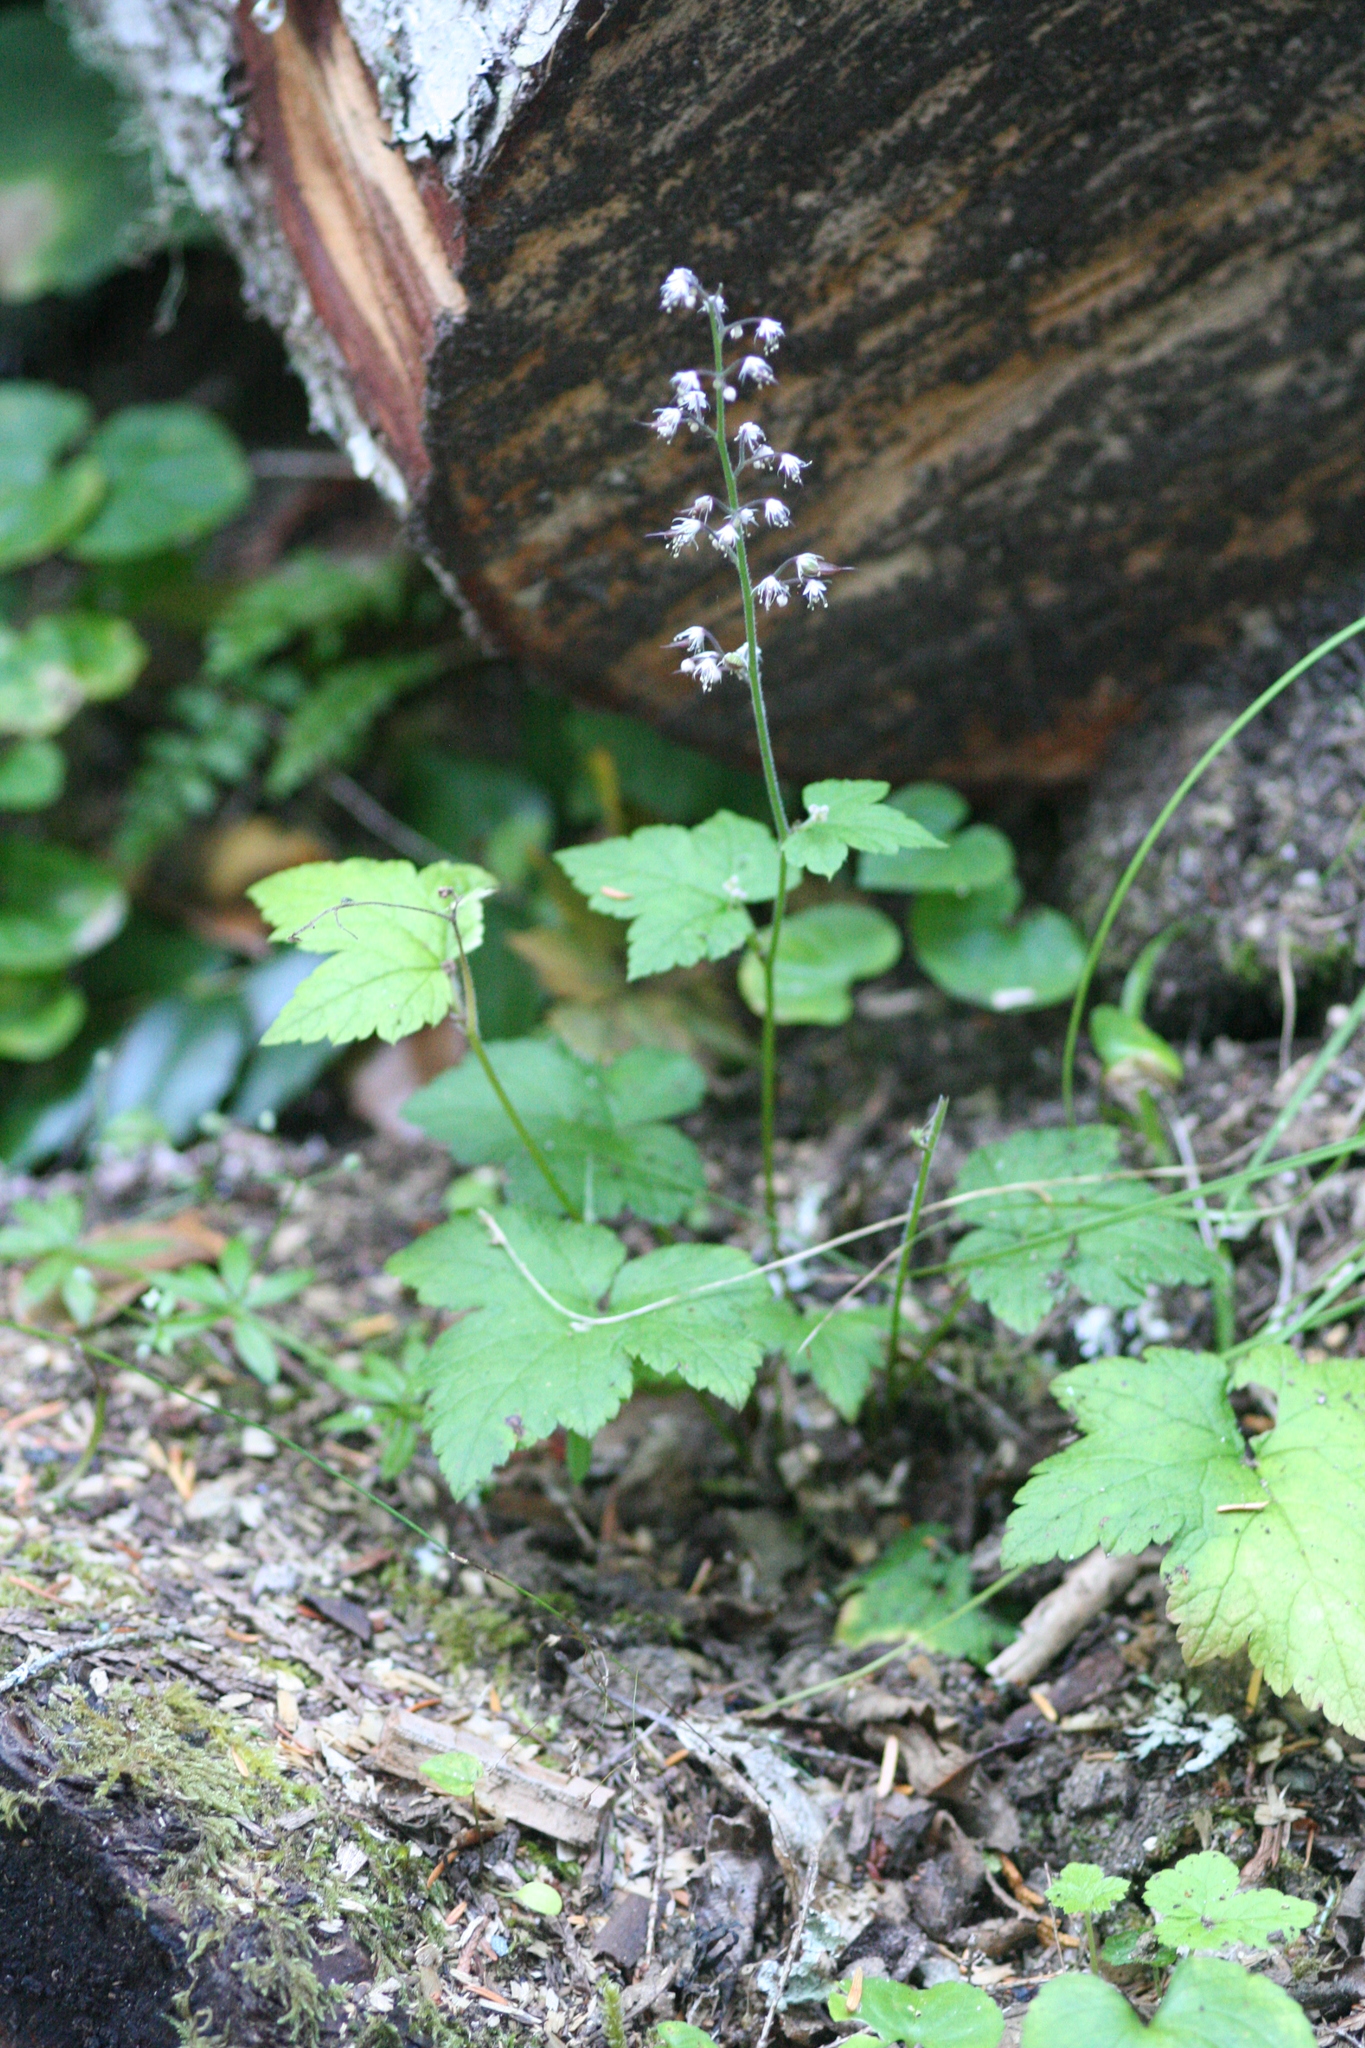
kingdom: Plantae
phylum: Tracheophyta
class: Magnoliopsida
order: Saxifragales
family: Saxifragaceae
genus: Tiarella
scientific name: Tiarella trifoliata
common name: Sugar-scoop
